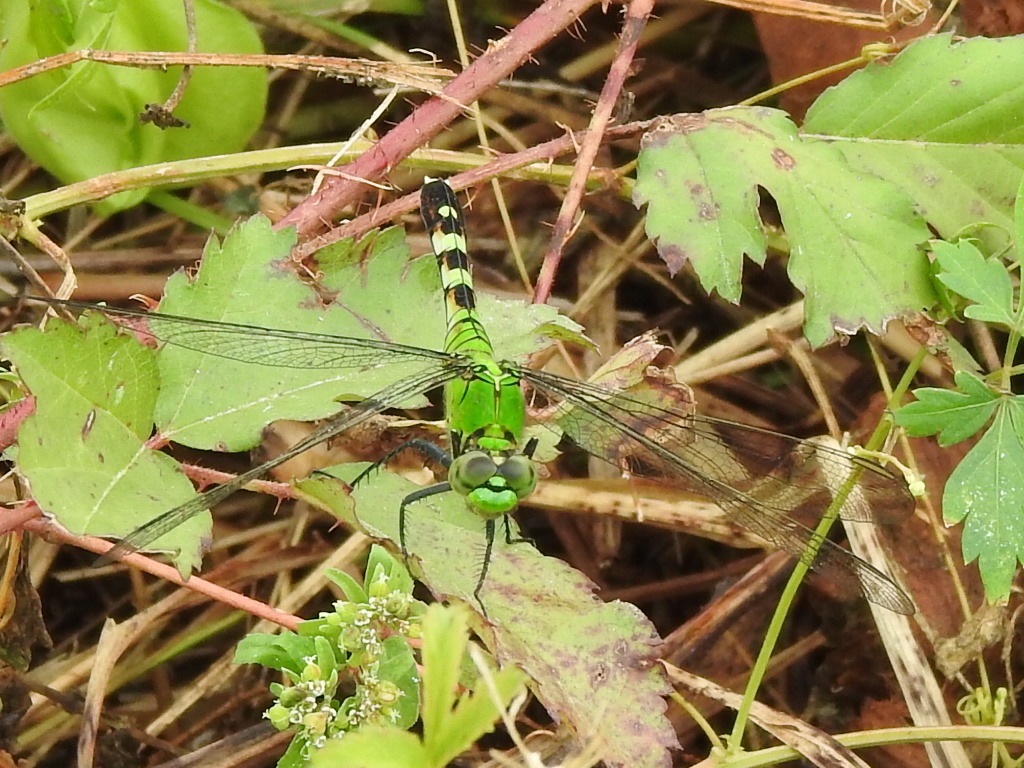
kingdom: Animalia
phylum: Arthropoda
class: Insecta
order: Odonata
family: Libellulidae
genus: Erythemis
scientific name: Erythemis simplicicollis
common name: Eastern pondhawk
